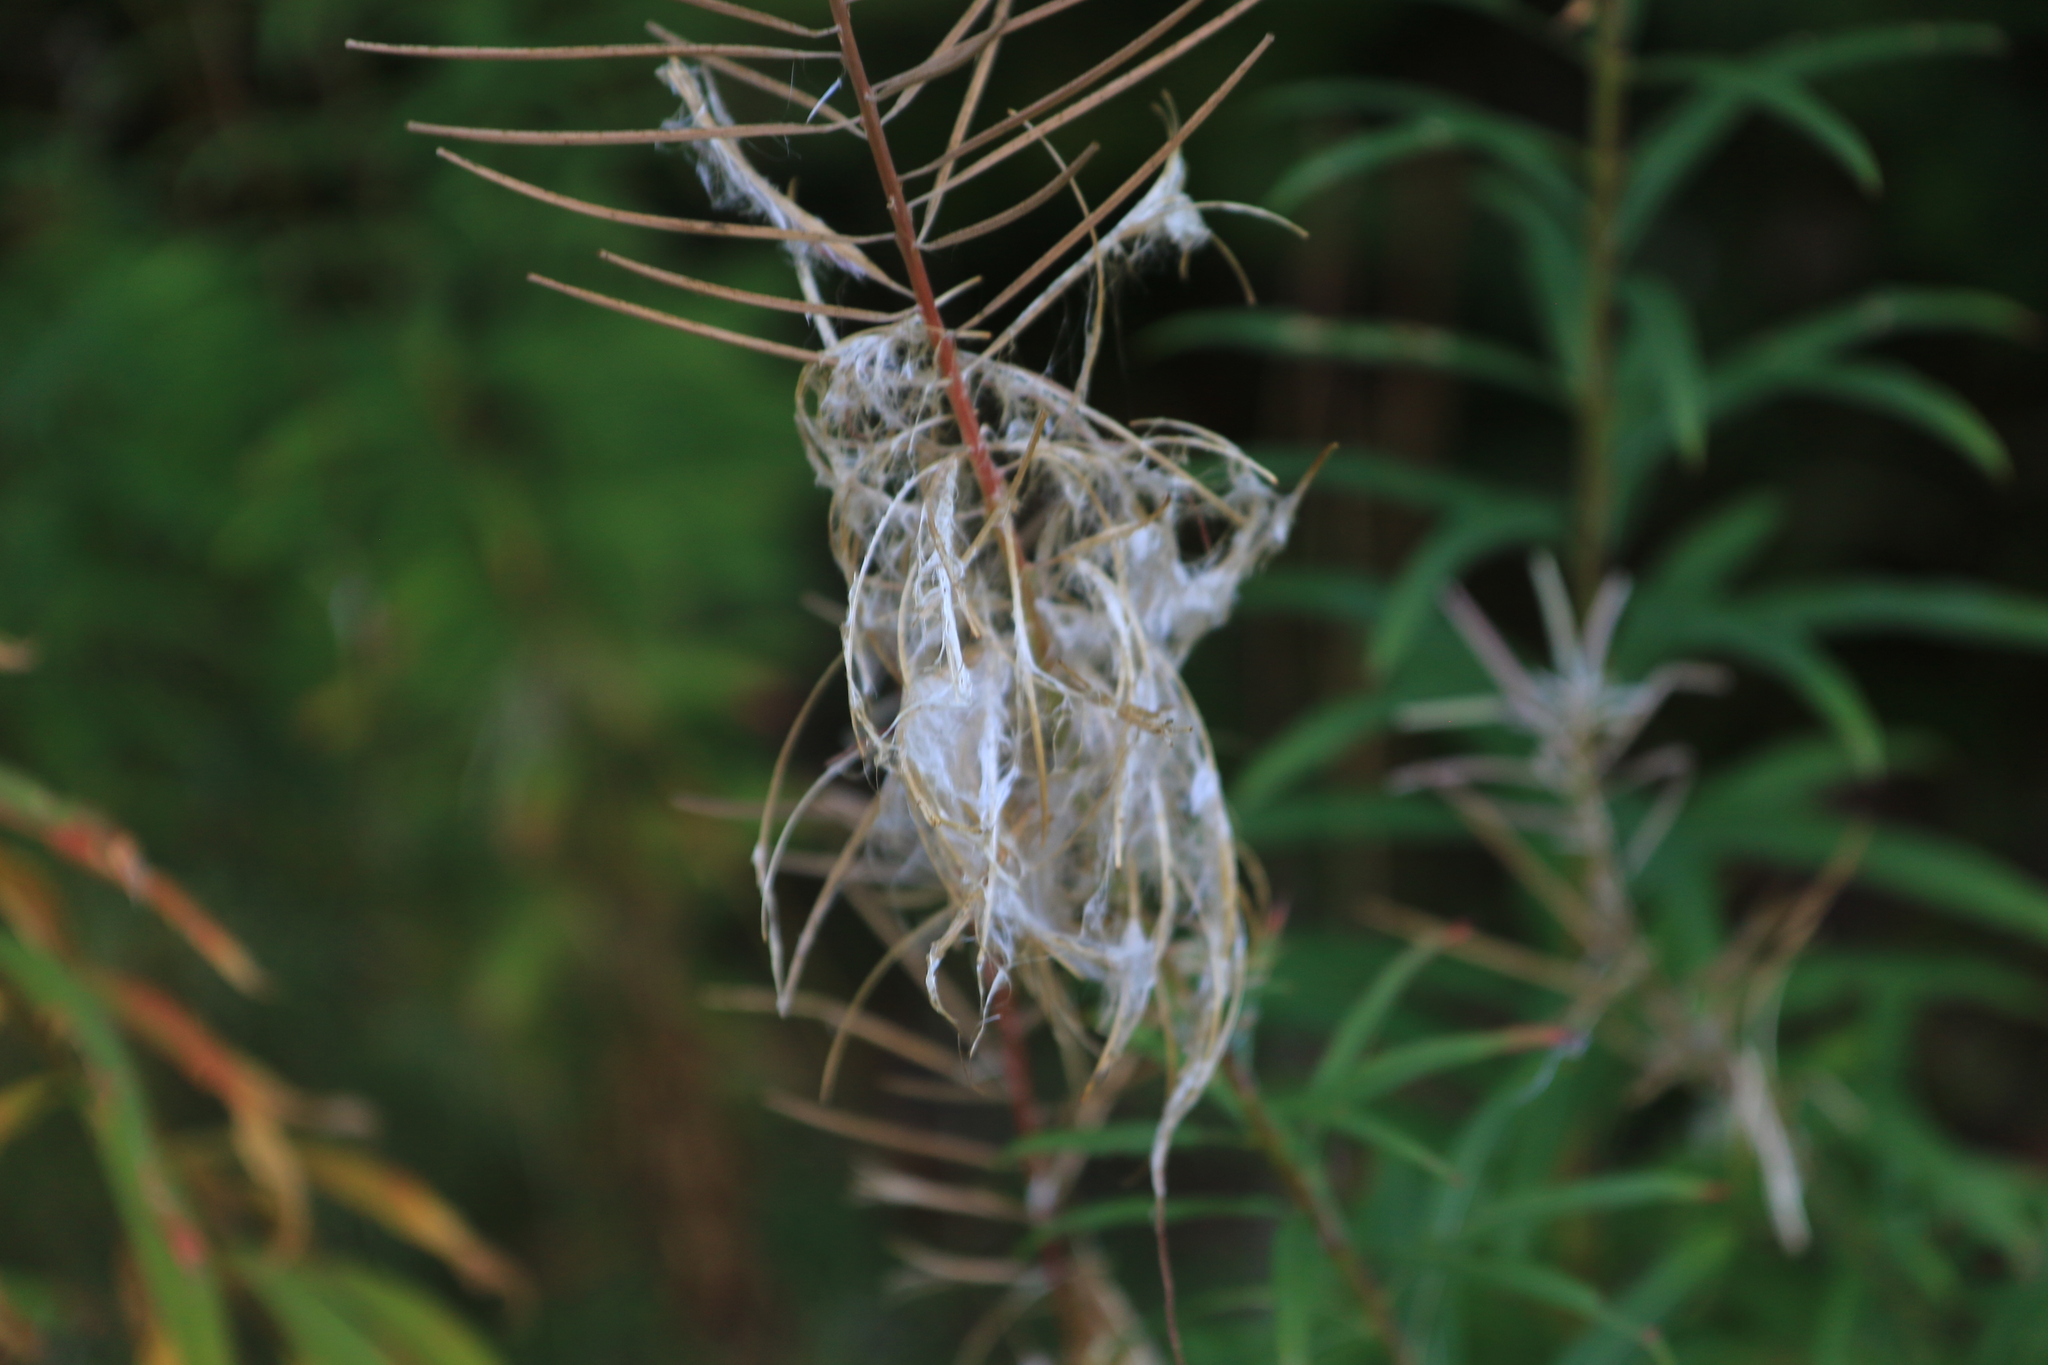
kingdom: Plantae
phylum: Tracheophyta
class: Magnoliopsida
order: Myrtales
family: Onagraceae
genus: Chamaenerion
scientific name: Chamaenerion angustifolium
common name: Fireweed
